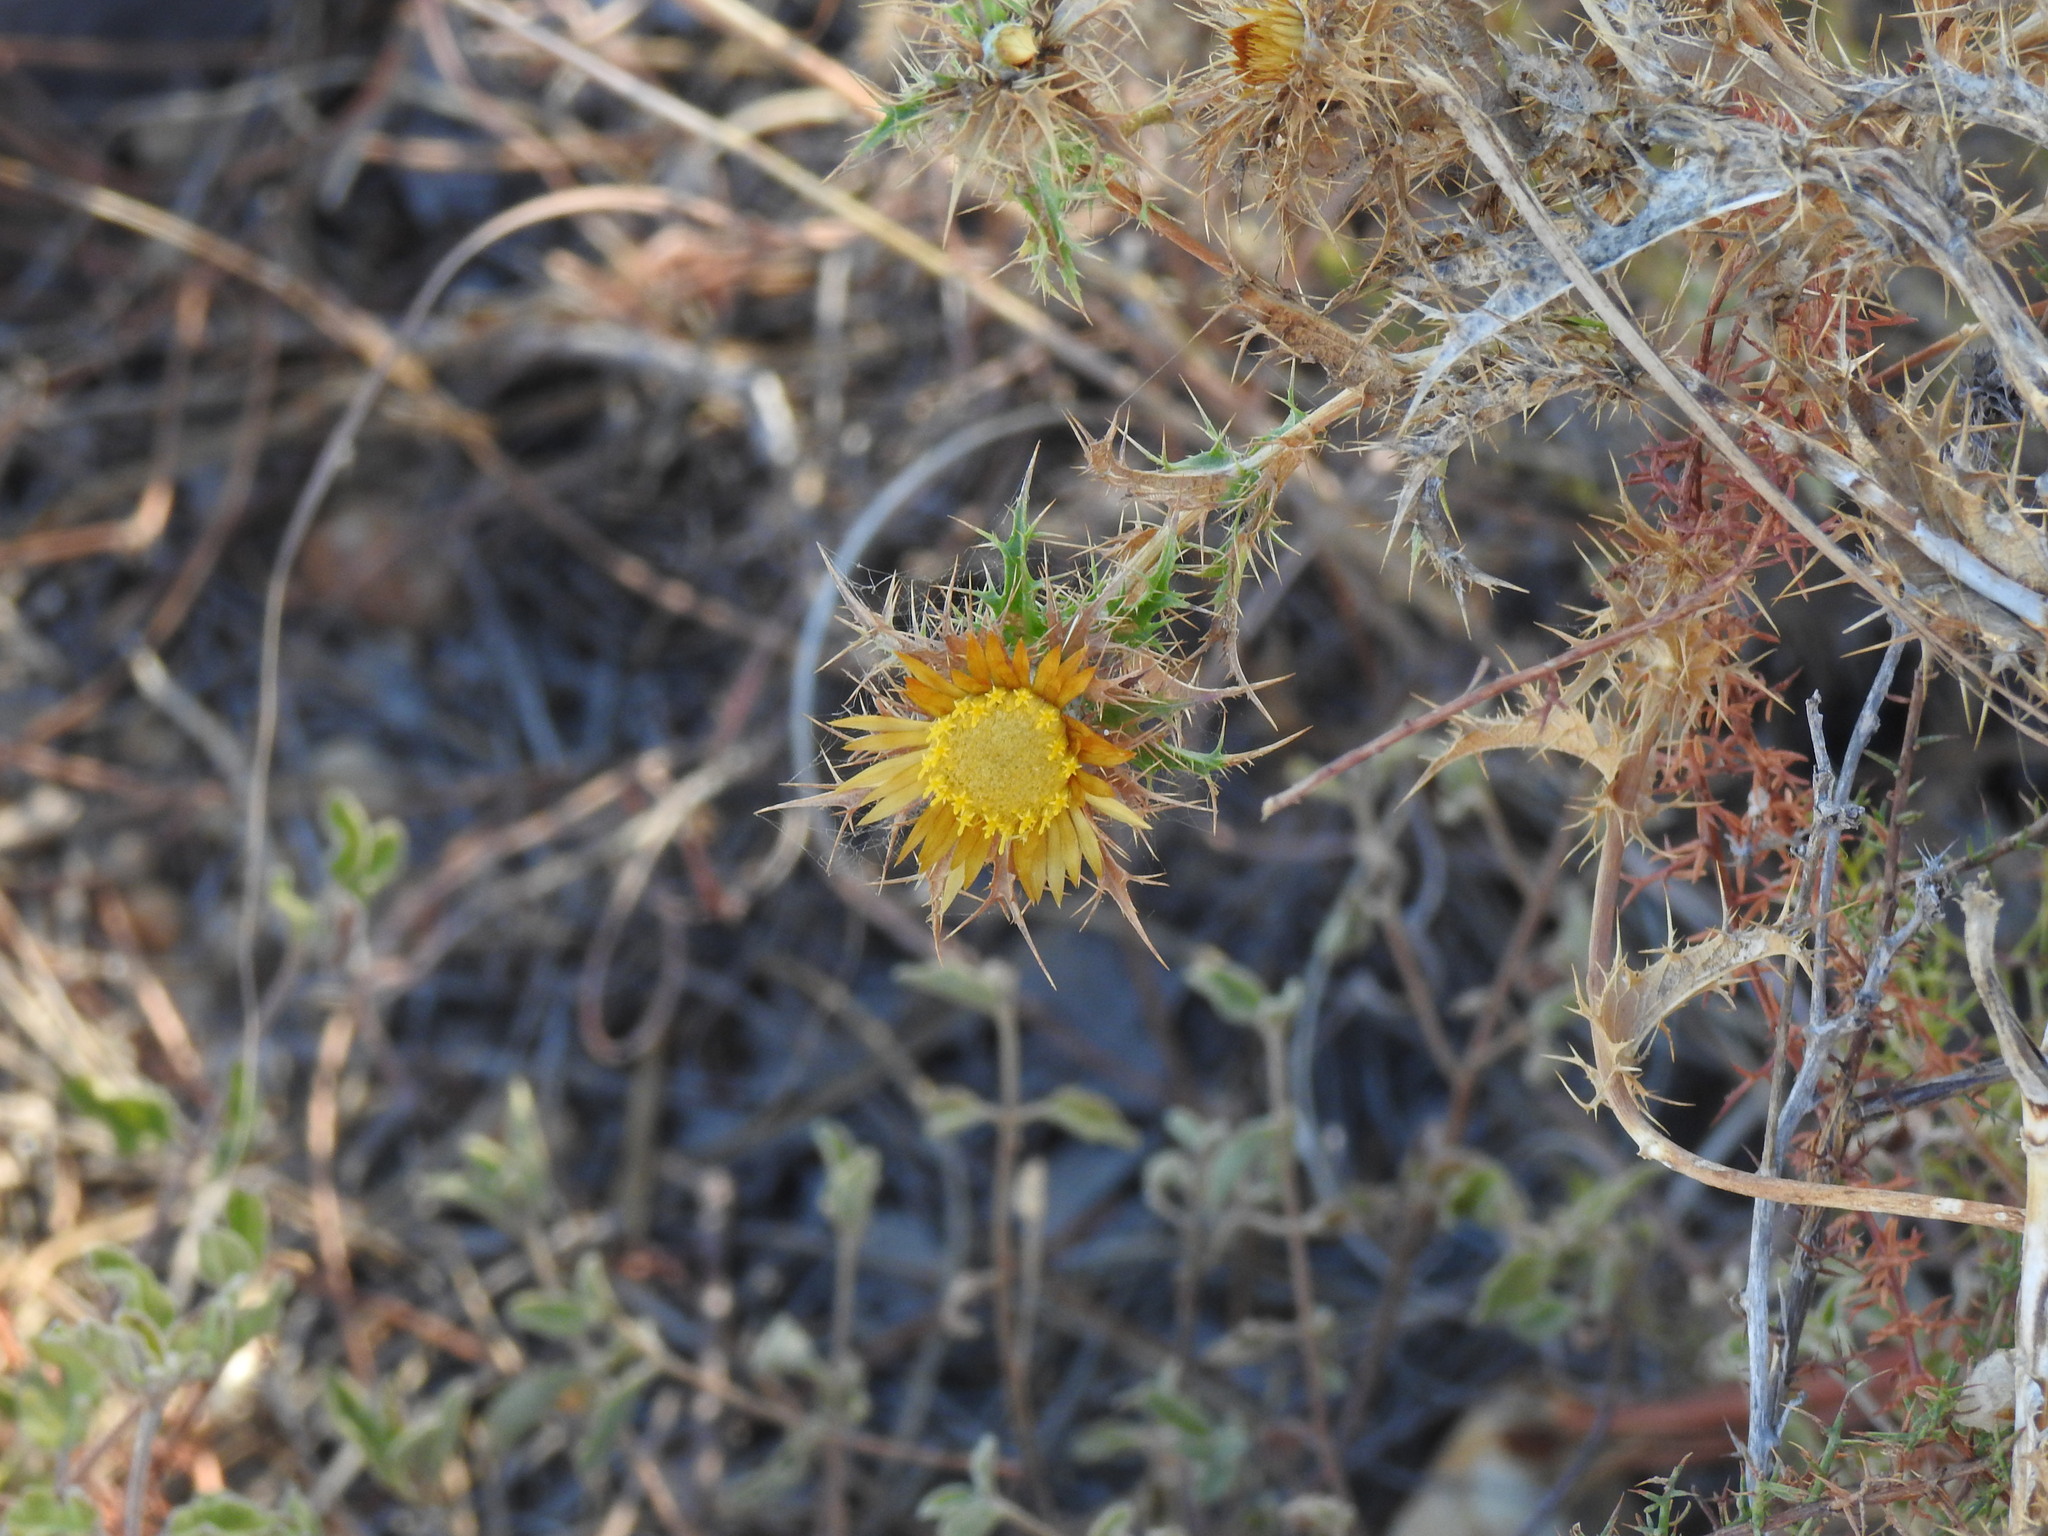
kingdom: Plantae
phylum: Tracheophyta
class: Magnoliopsida
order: Asterales
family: Asteraceae
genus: Carlina
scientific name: Carlina hispanica
